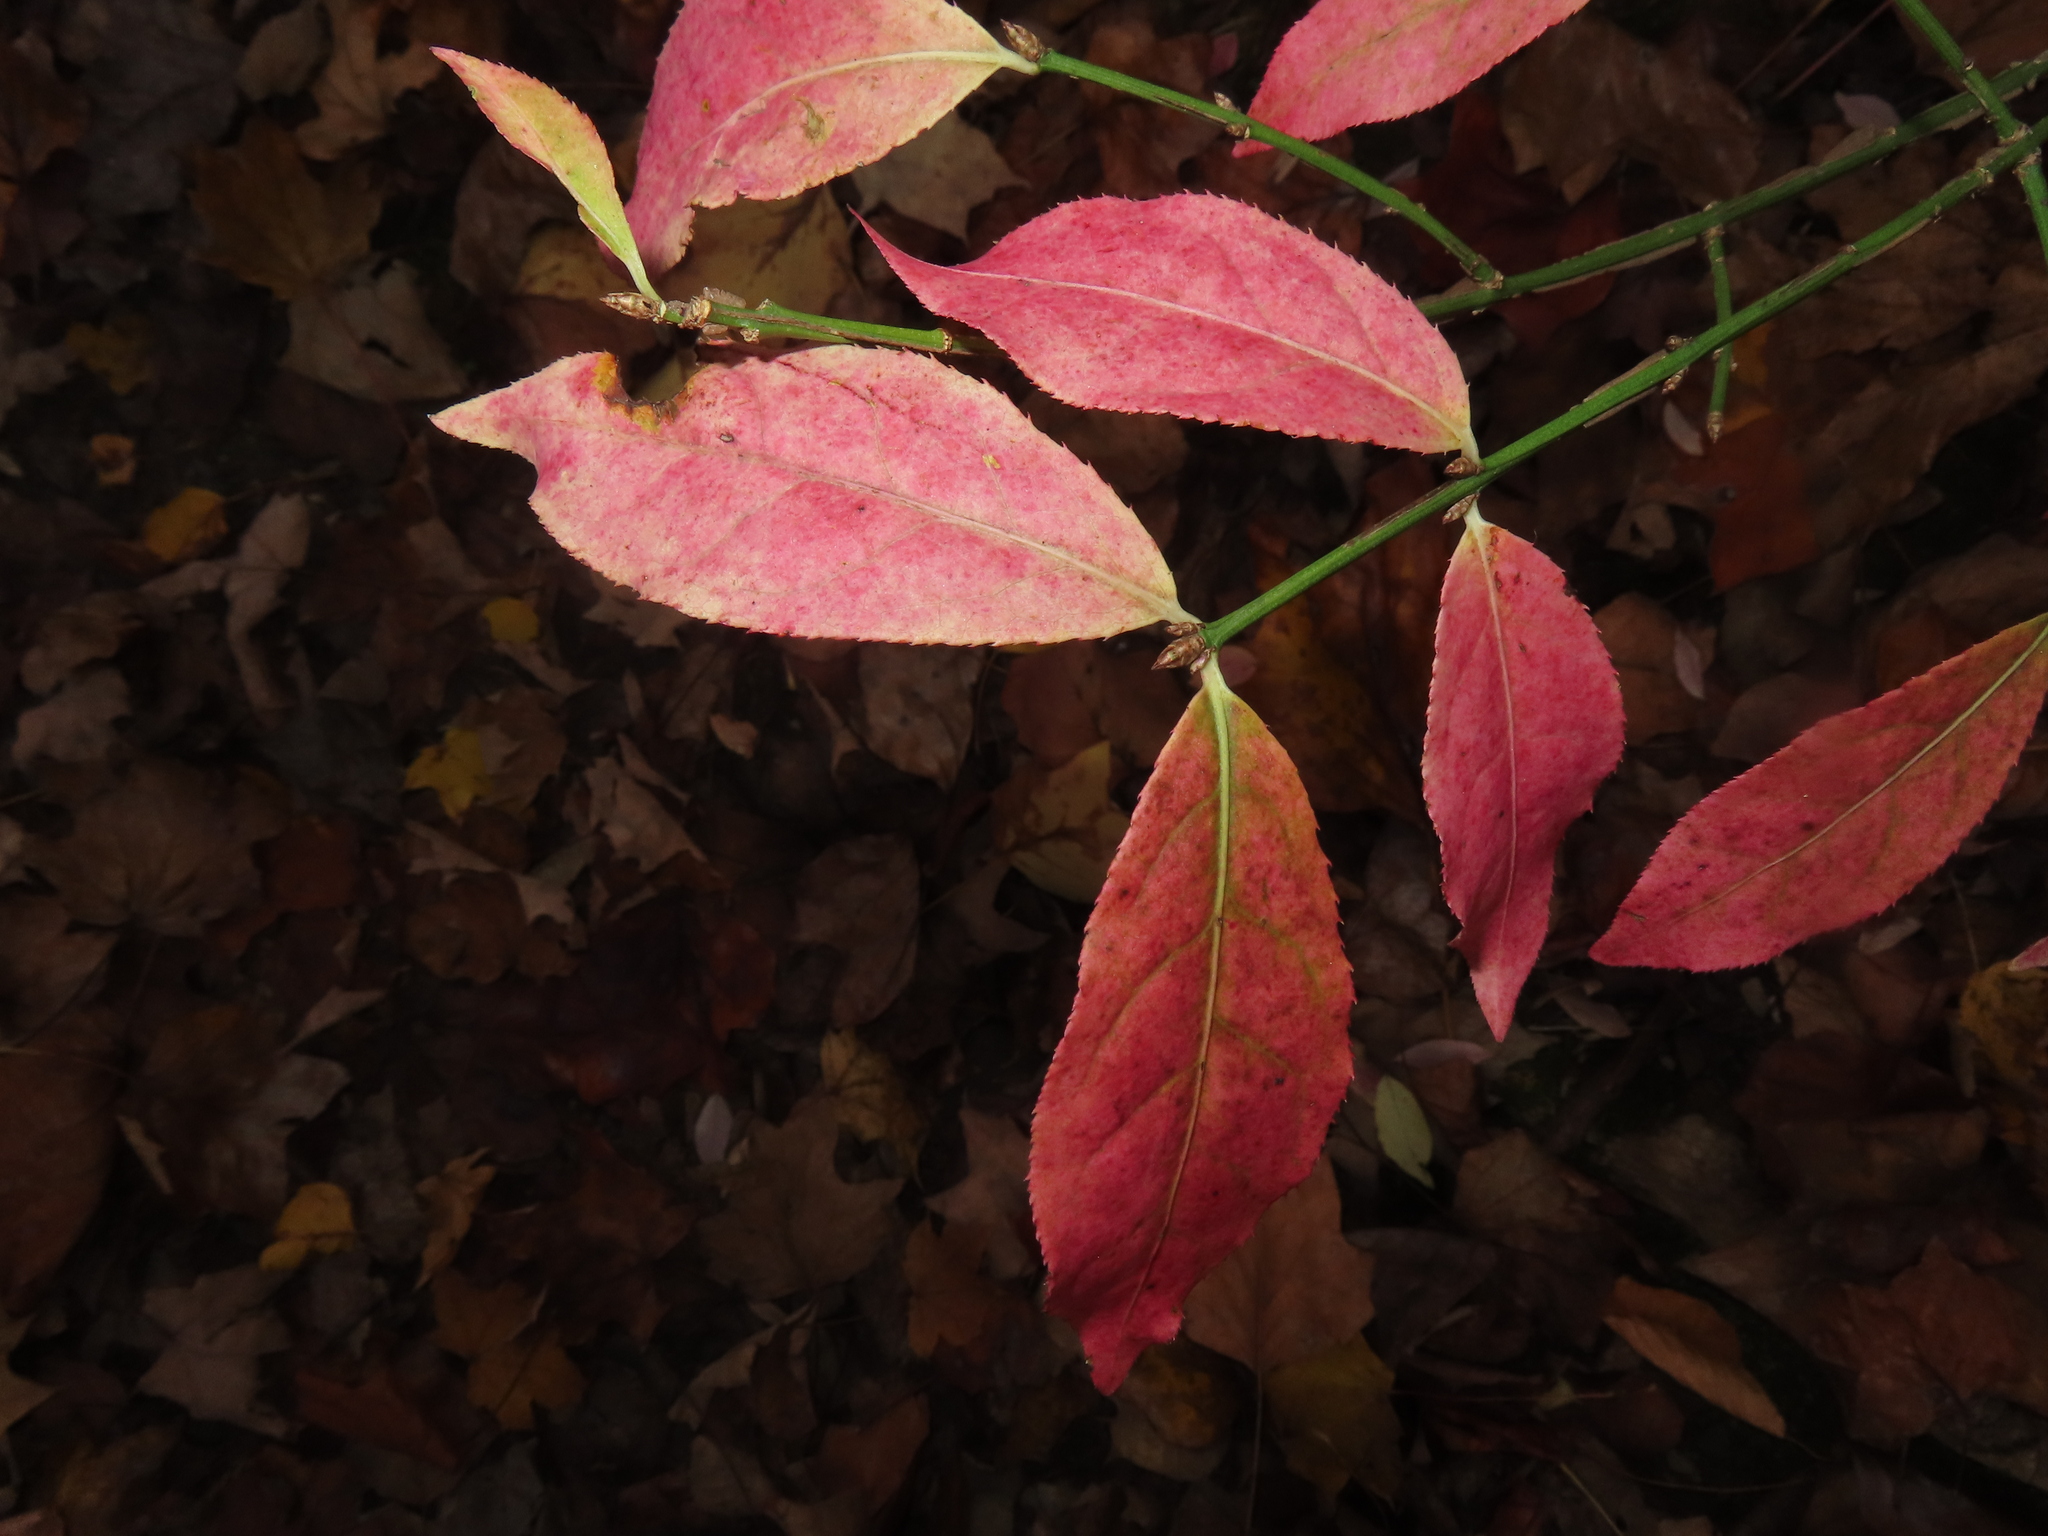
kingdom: Plantae
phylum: Tracheophyta
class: Magnoliopsida
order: Celastrales
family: Celastraceae
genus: Euonymus
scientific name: Euonymus alatus
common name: Winged euonymus
